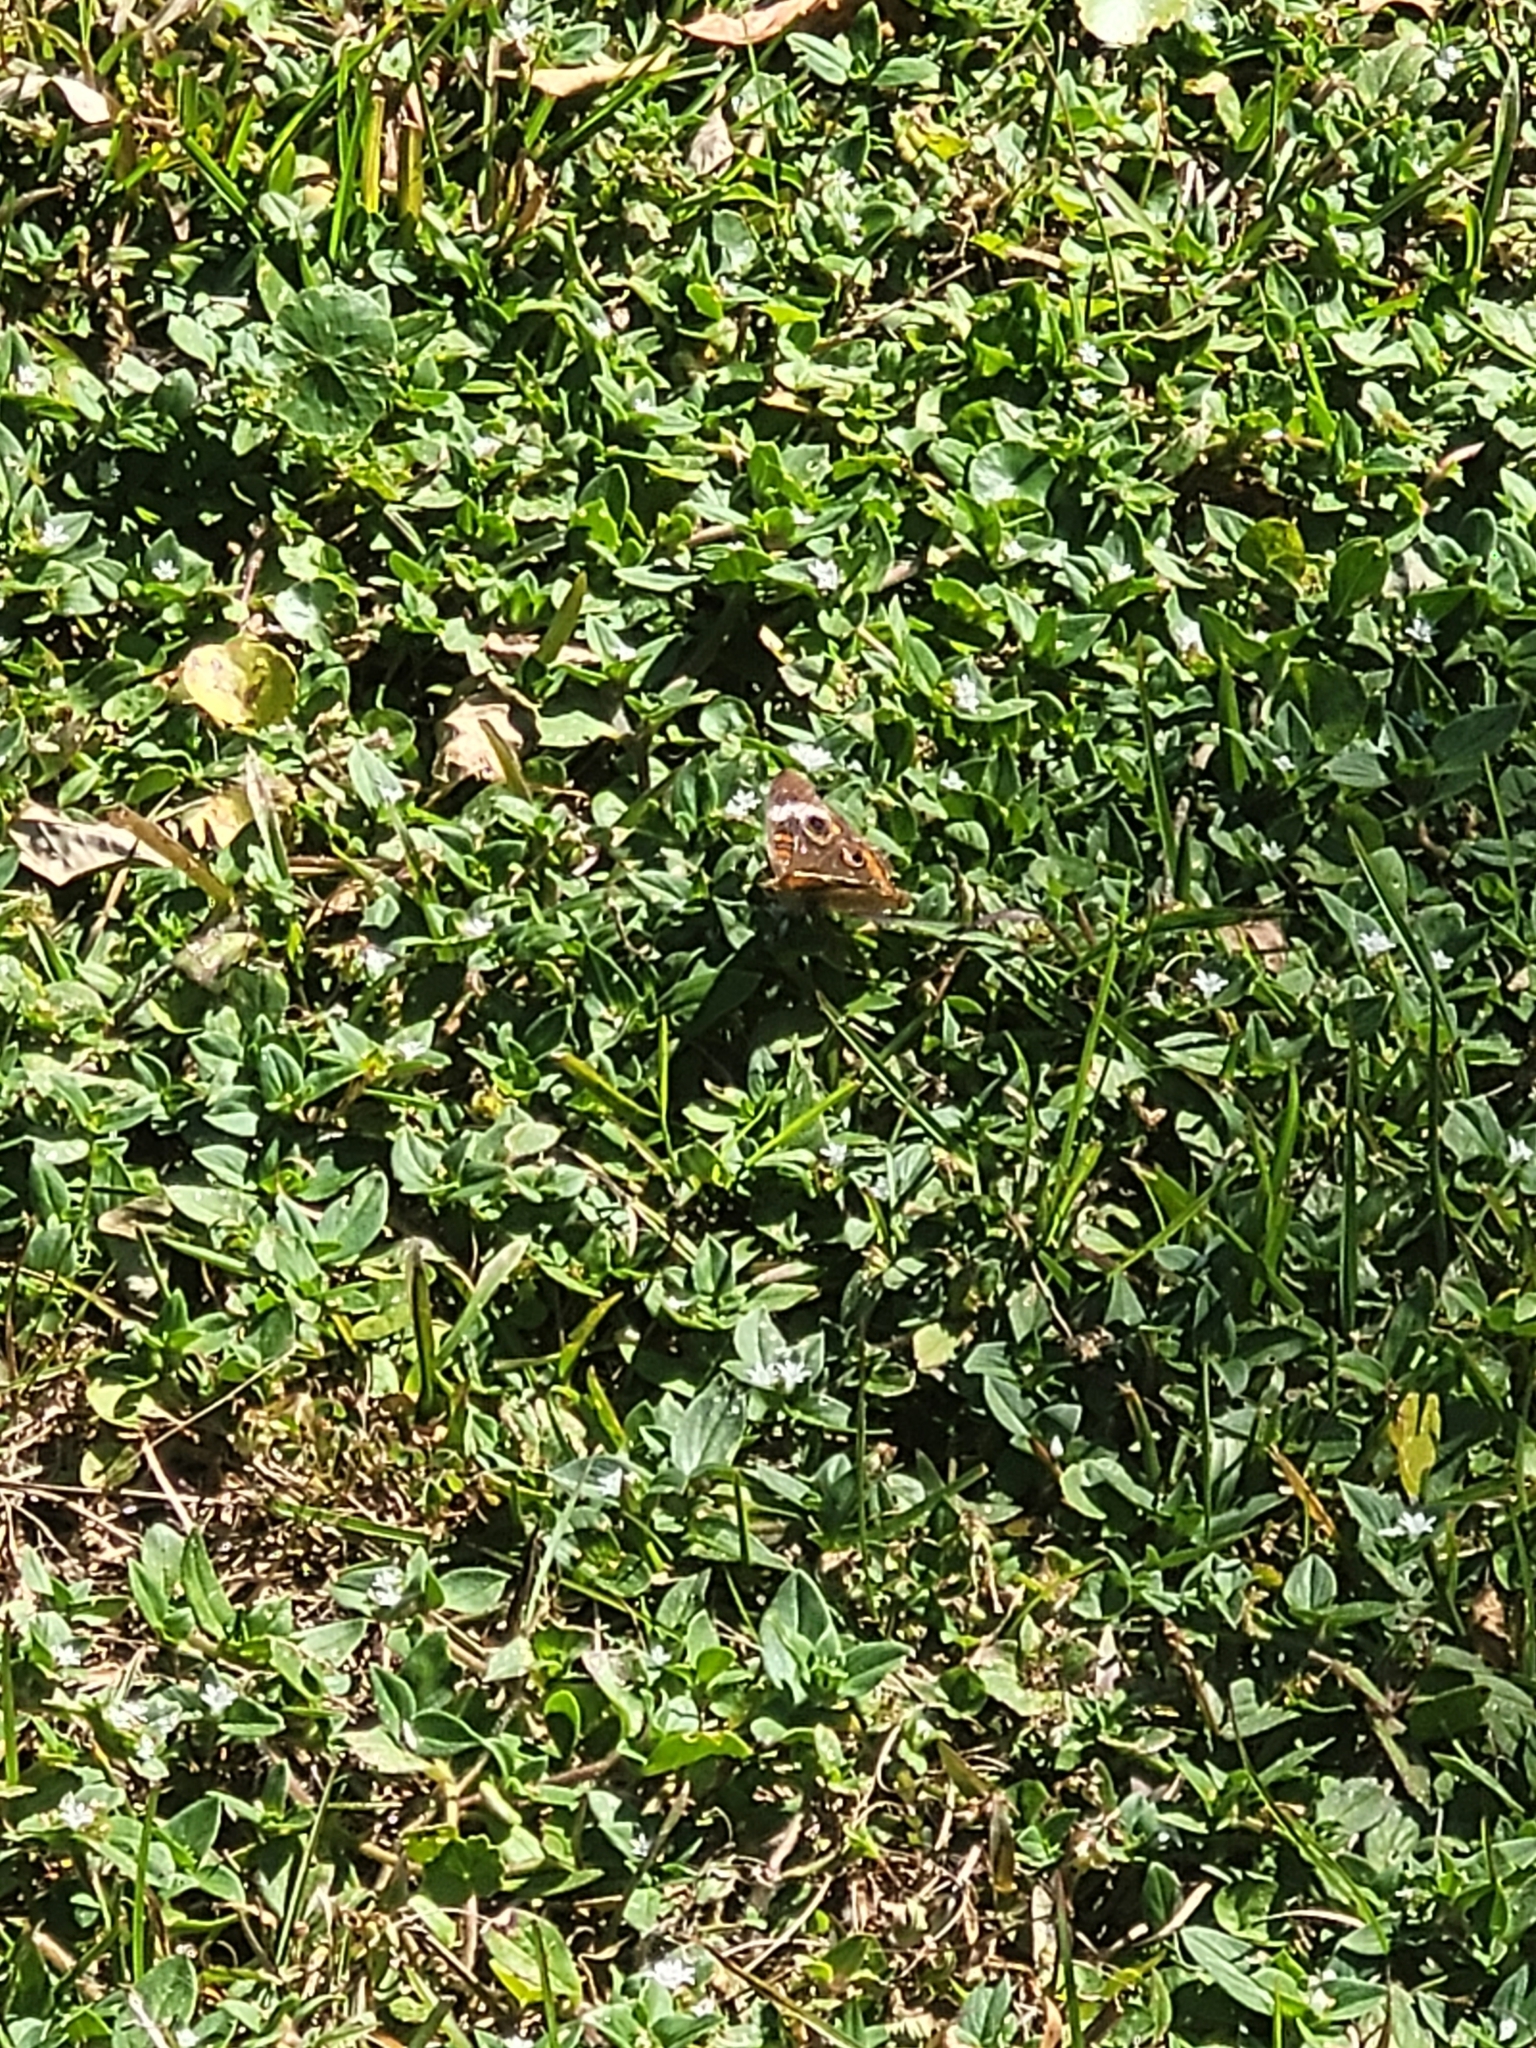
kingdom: Animalia
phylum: Arthropoda
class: Insecta
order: Lepidoptera
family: Nymphalidae
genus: Junonia
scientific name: Junonia coenia
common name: Common buckeye
